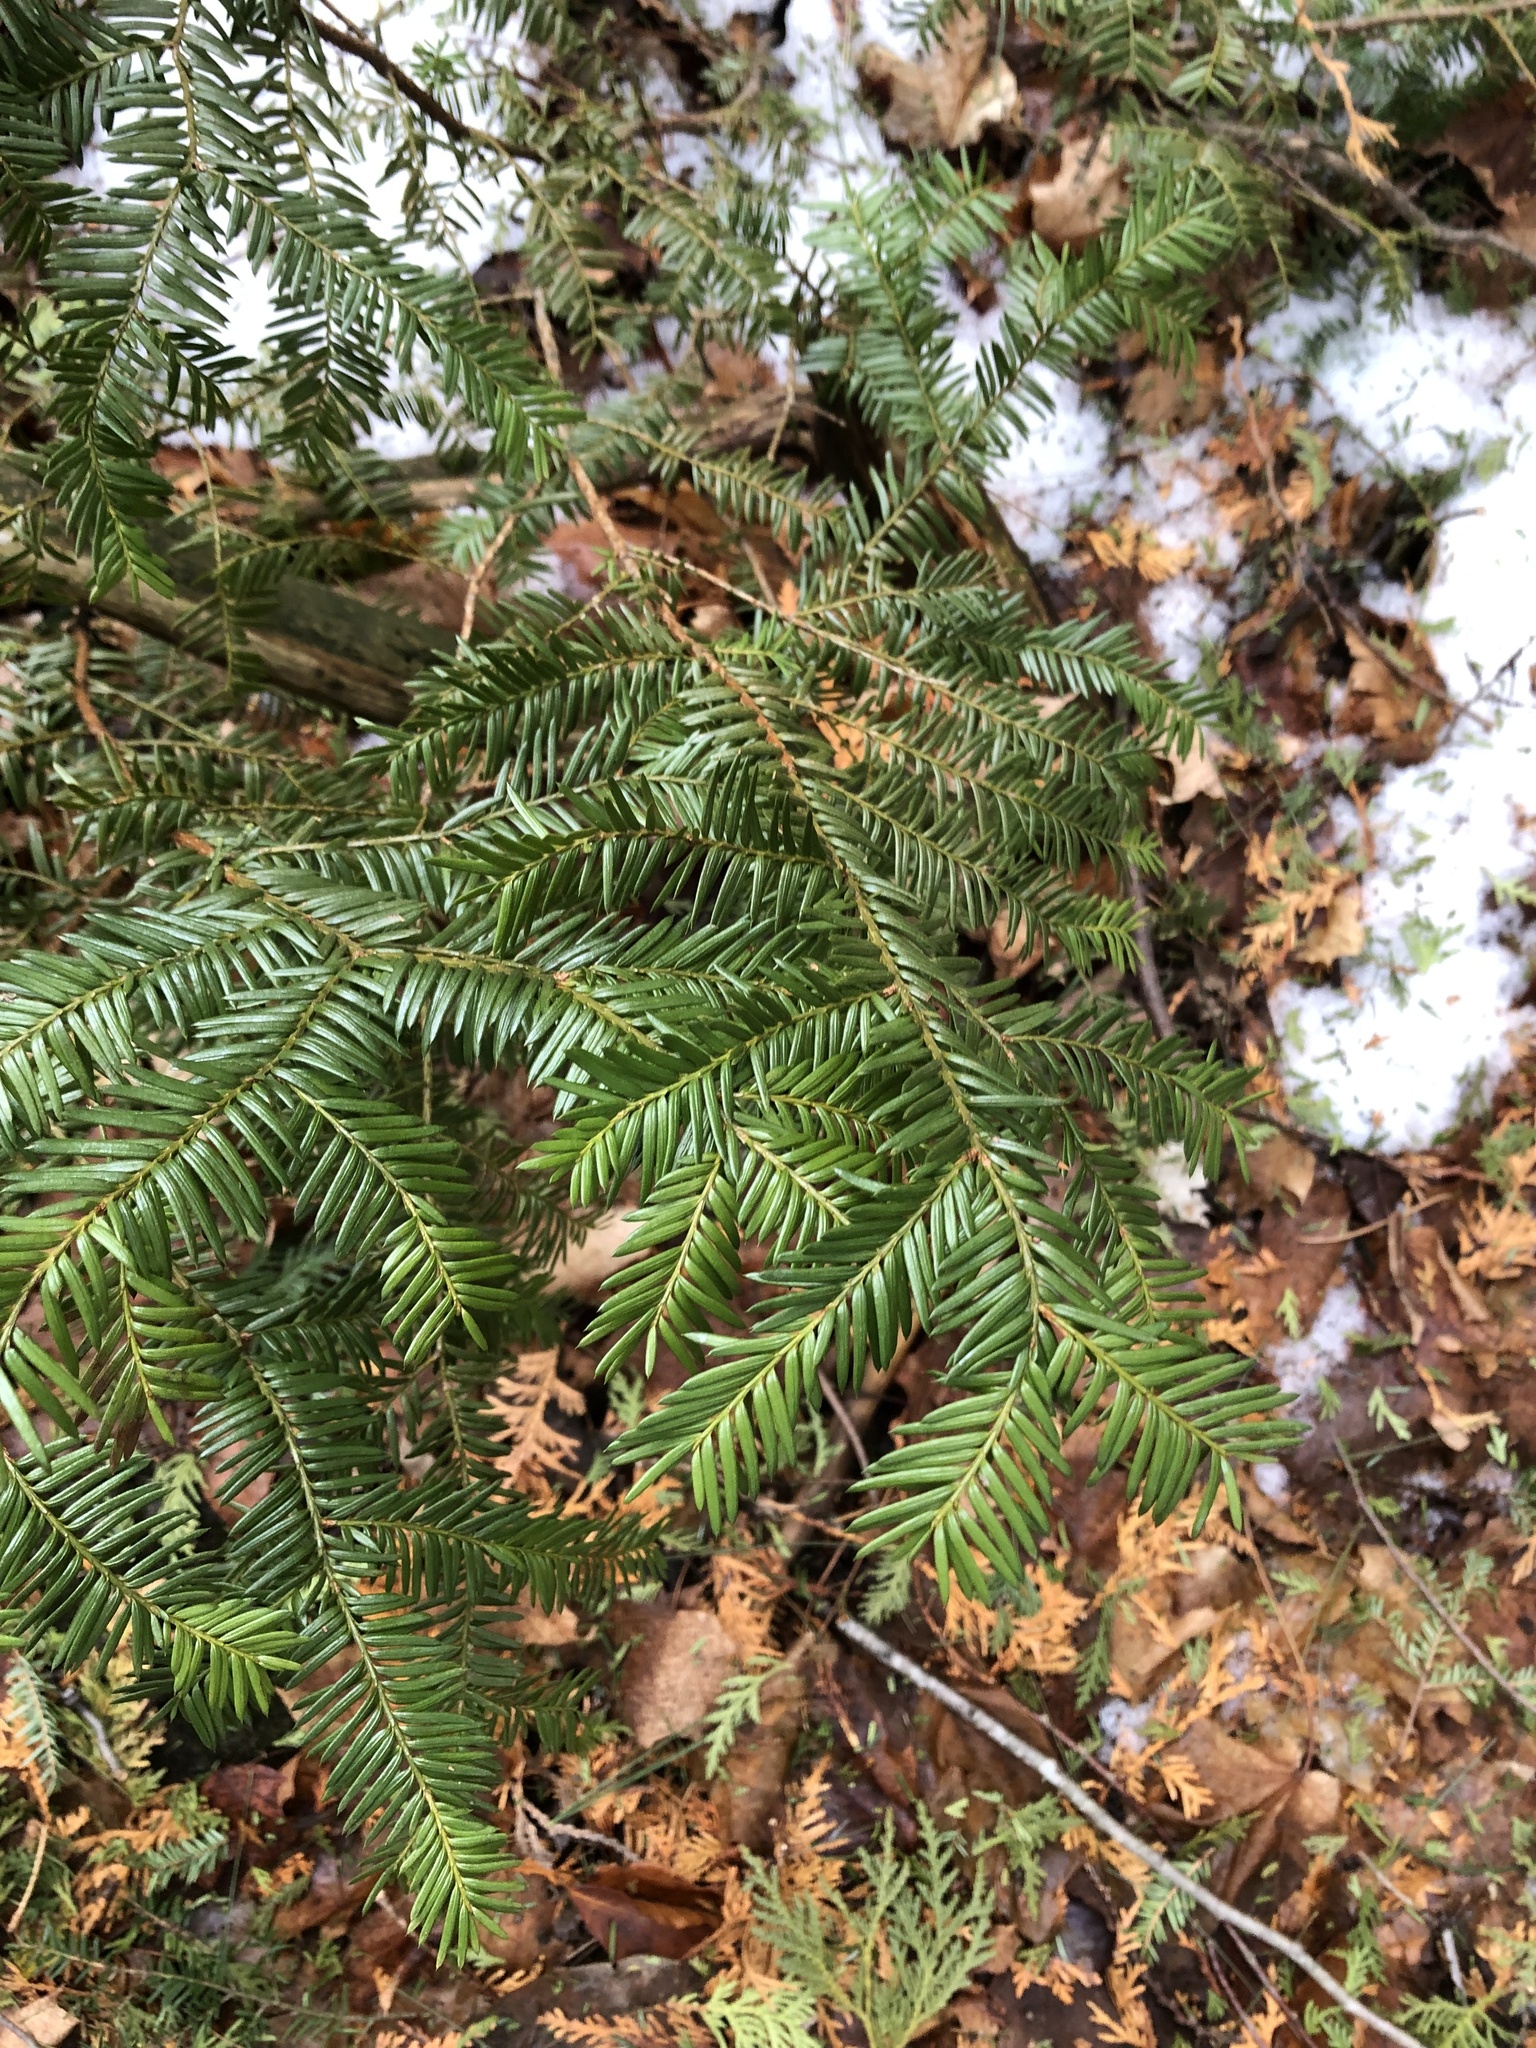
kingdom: Plantae
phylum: Tracheophyta
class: Pinopsida
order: Pinales
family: Taxaceae
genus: Taxus
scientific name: Taxus canadensis
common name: American yew
